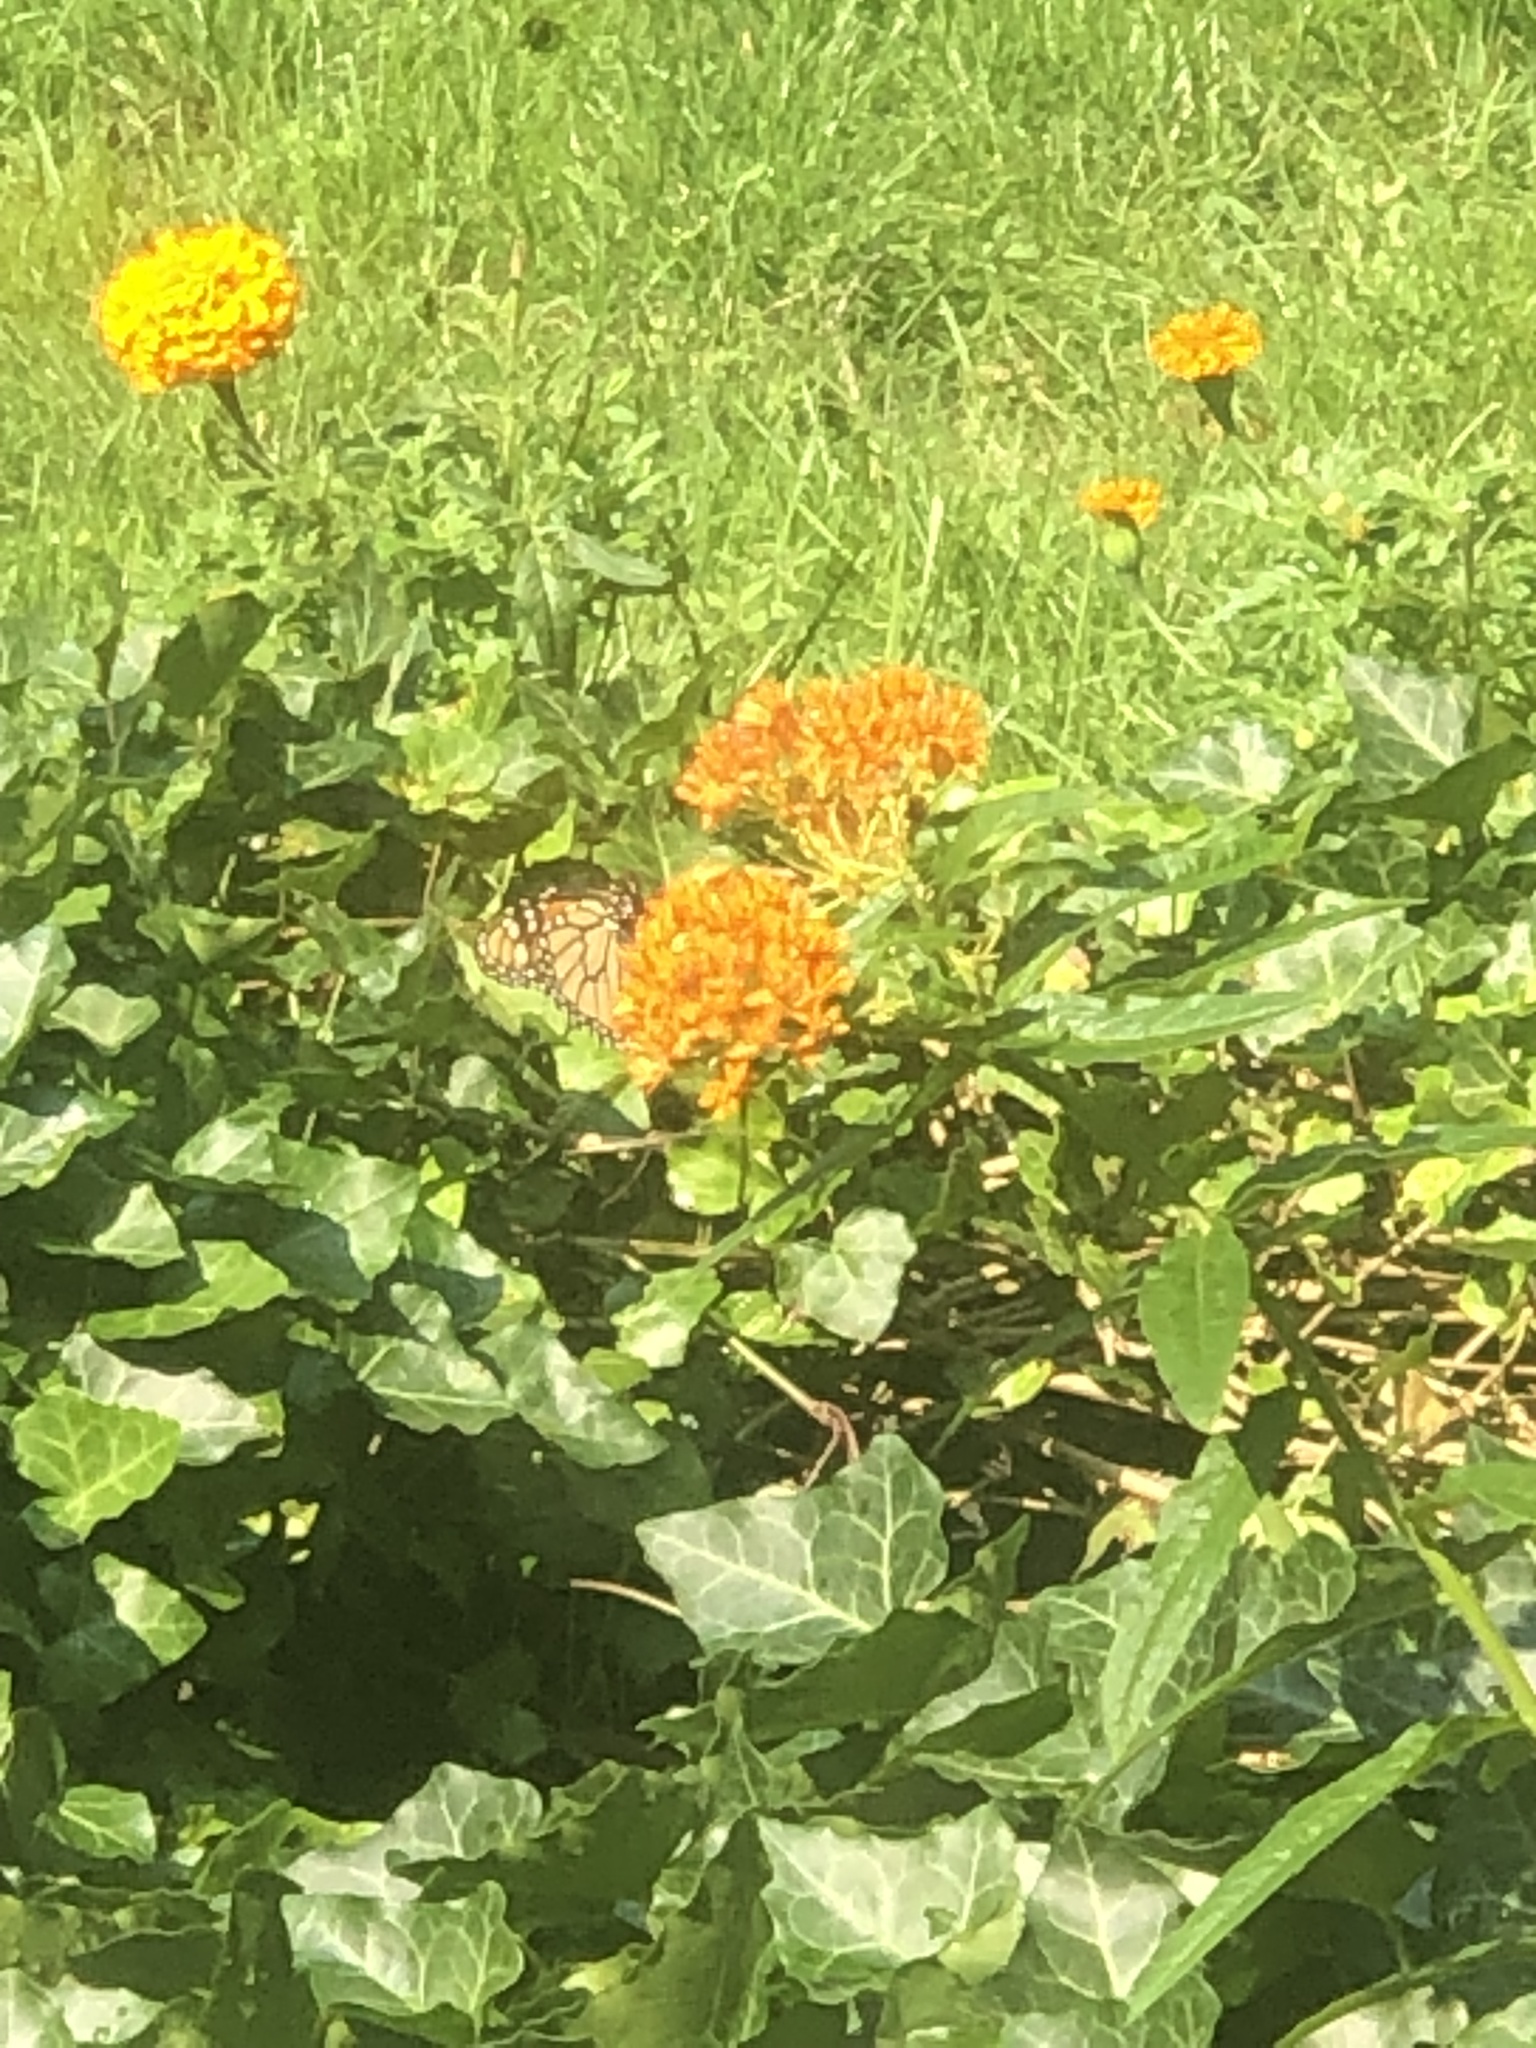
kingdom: Animalia
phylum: Arthropoda
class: Insecta
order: Lepidoptera
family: Nymphalidae
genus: Danaus
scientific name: Danaus plexippus
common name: Monarch
